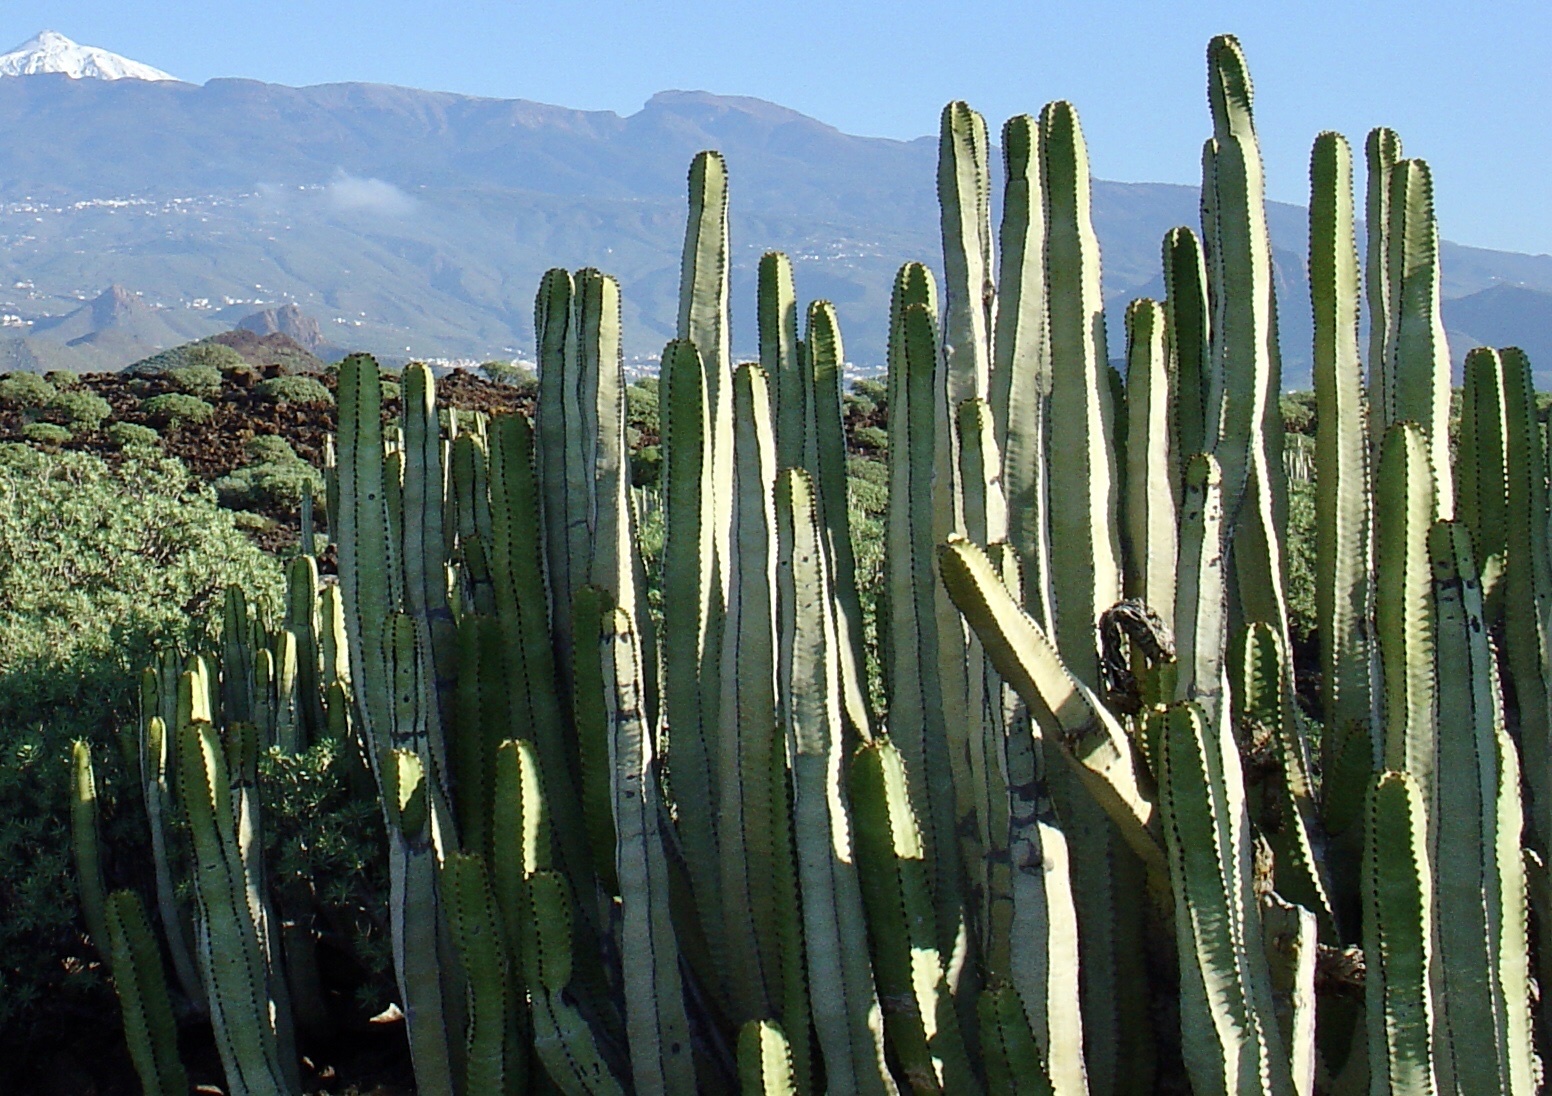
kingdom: Plantae
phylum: Tracheophyta
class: Magnoliopsida
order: Malpighiales
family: Euphorbiaceae
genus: Euphorbia
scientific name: Euphorbia canariensis
